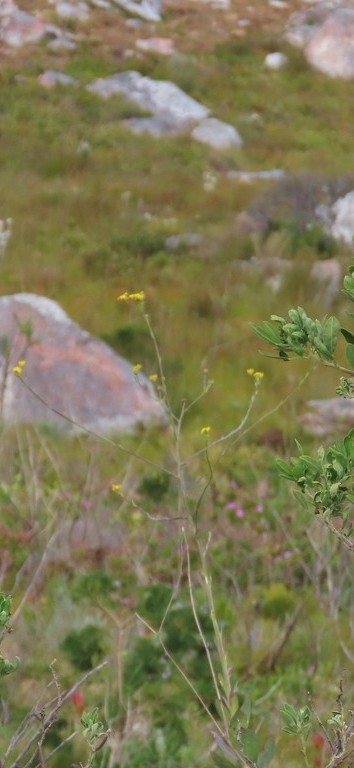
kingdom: Plantae
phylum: Tracheophyta
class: Magnoliopsida
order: Asterales
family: Asteraceae
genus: Othonna
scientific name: Othonna quinquedentata
